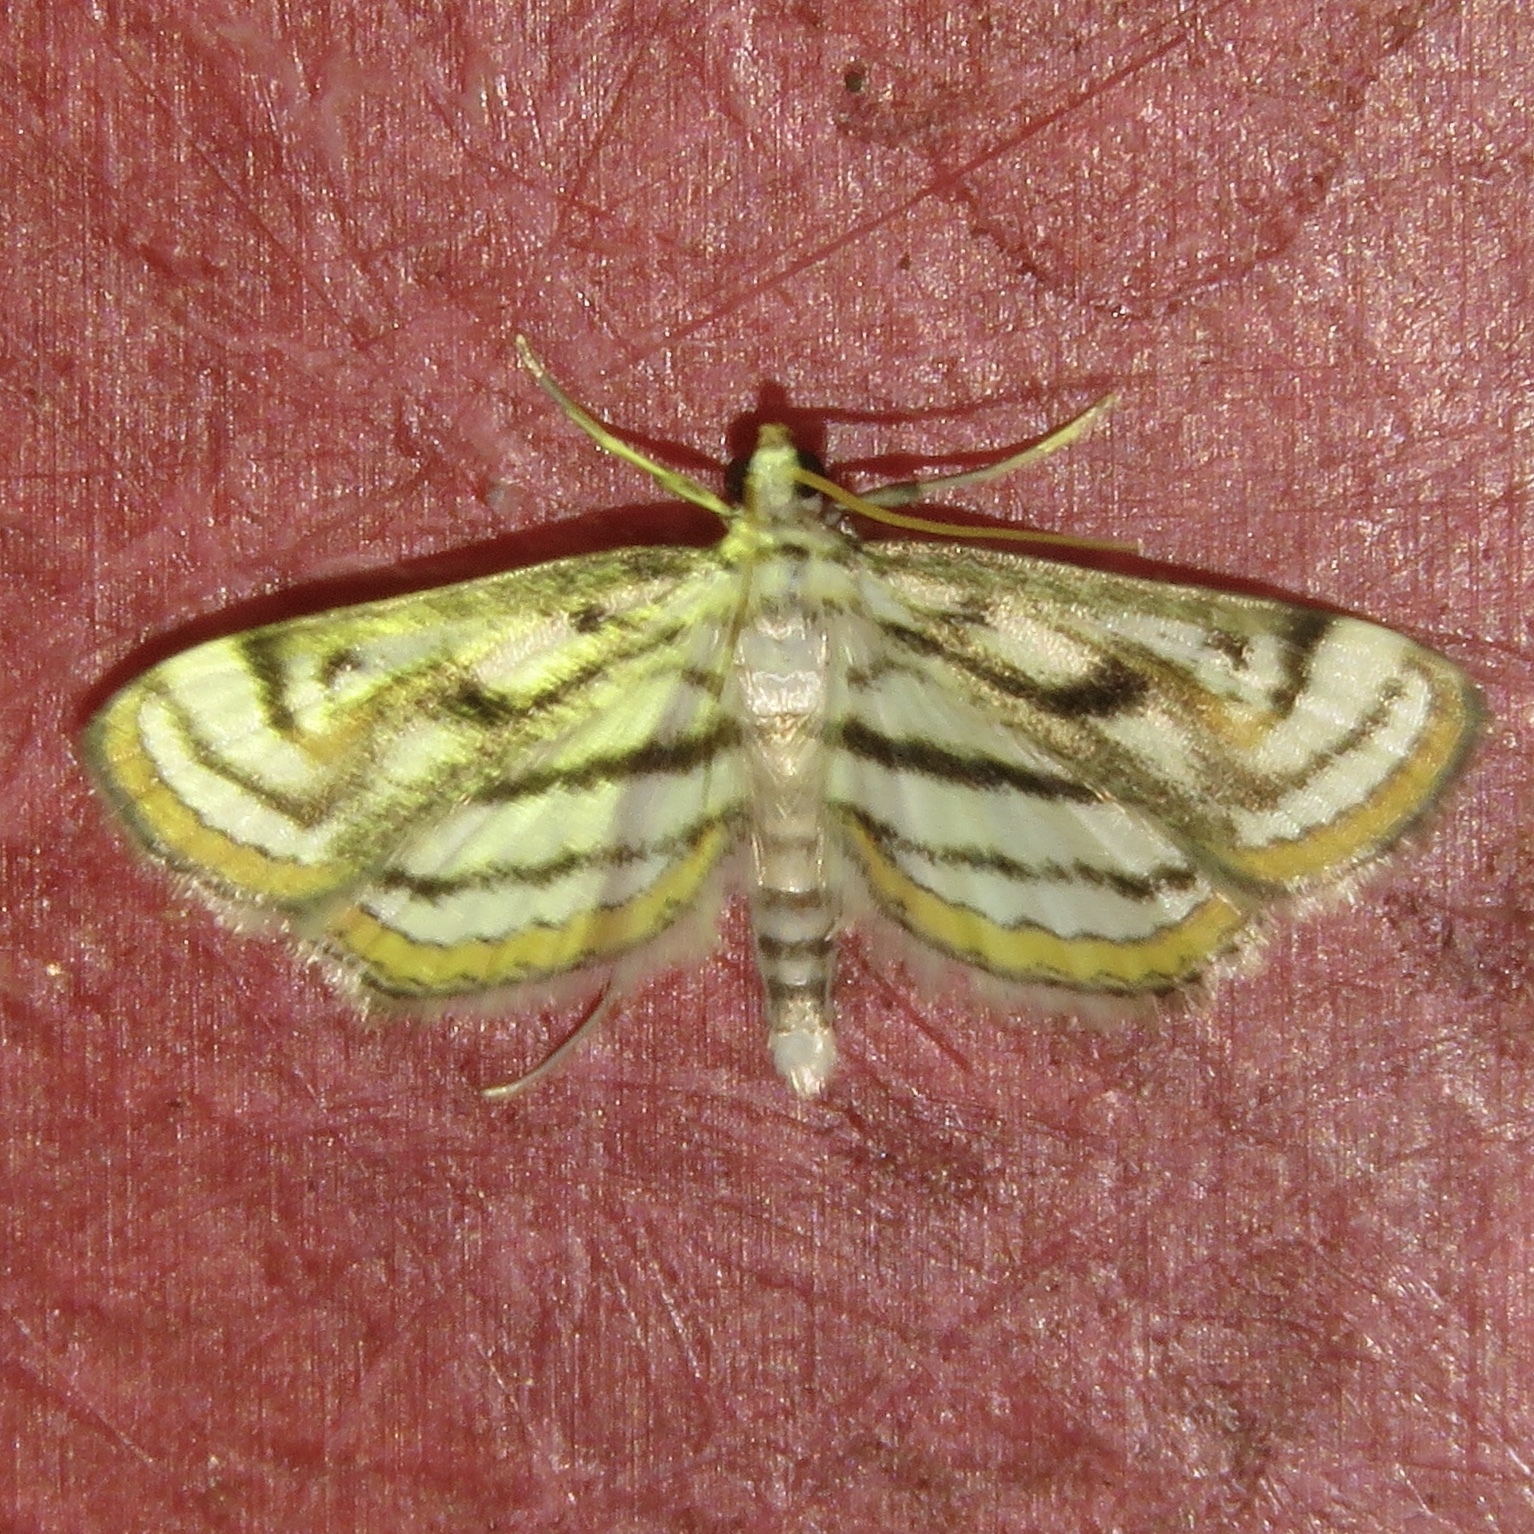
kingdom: Animalia
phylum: Arthropoda
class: Insecta
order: Lepidoptera
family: Crambidae
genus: Parapoynx
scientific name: Parapoynx badiusalis
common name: Chestnut-marked pondweed moth
